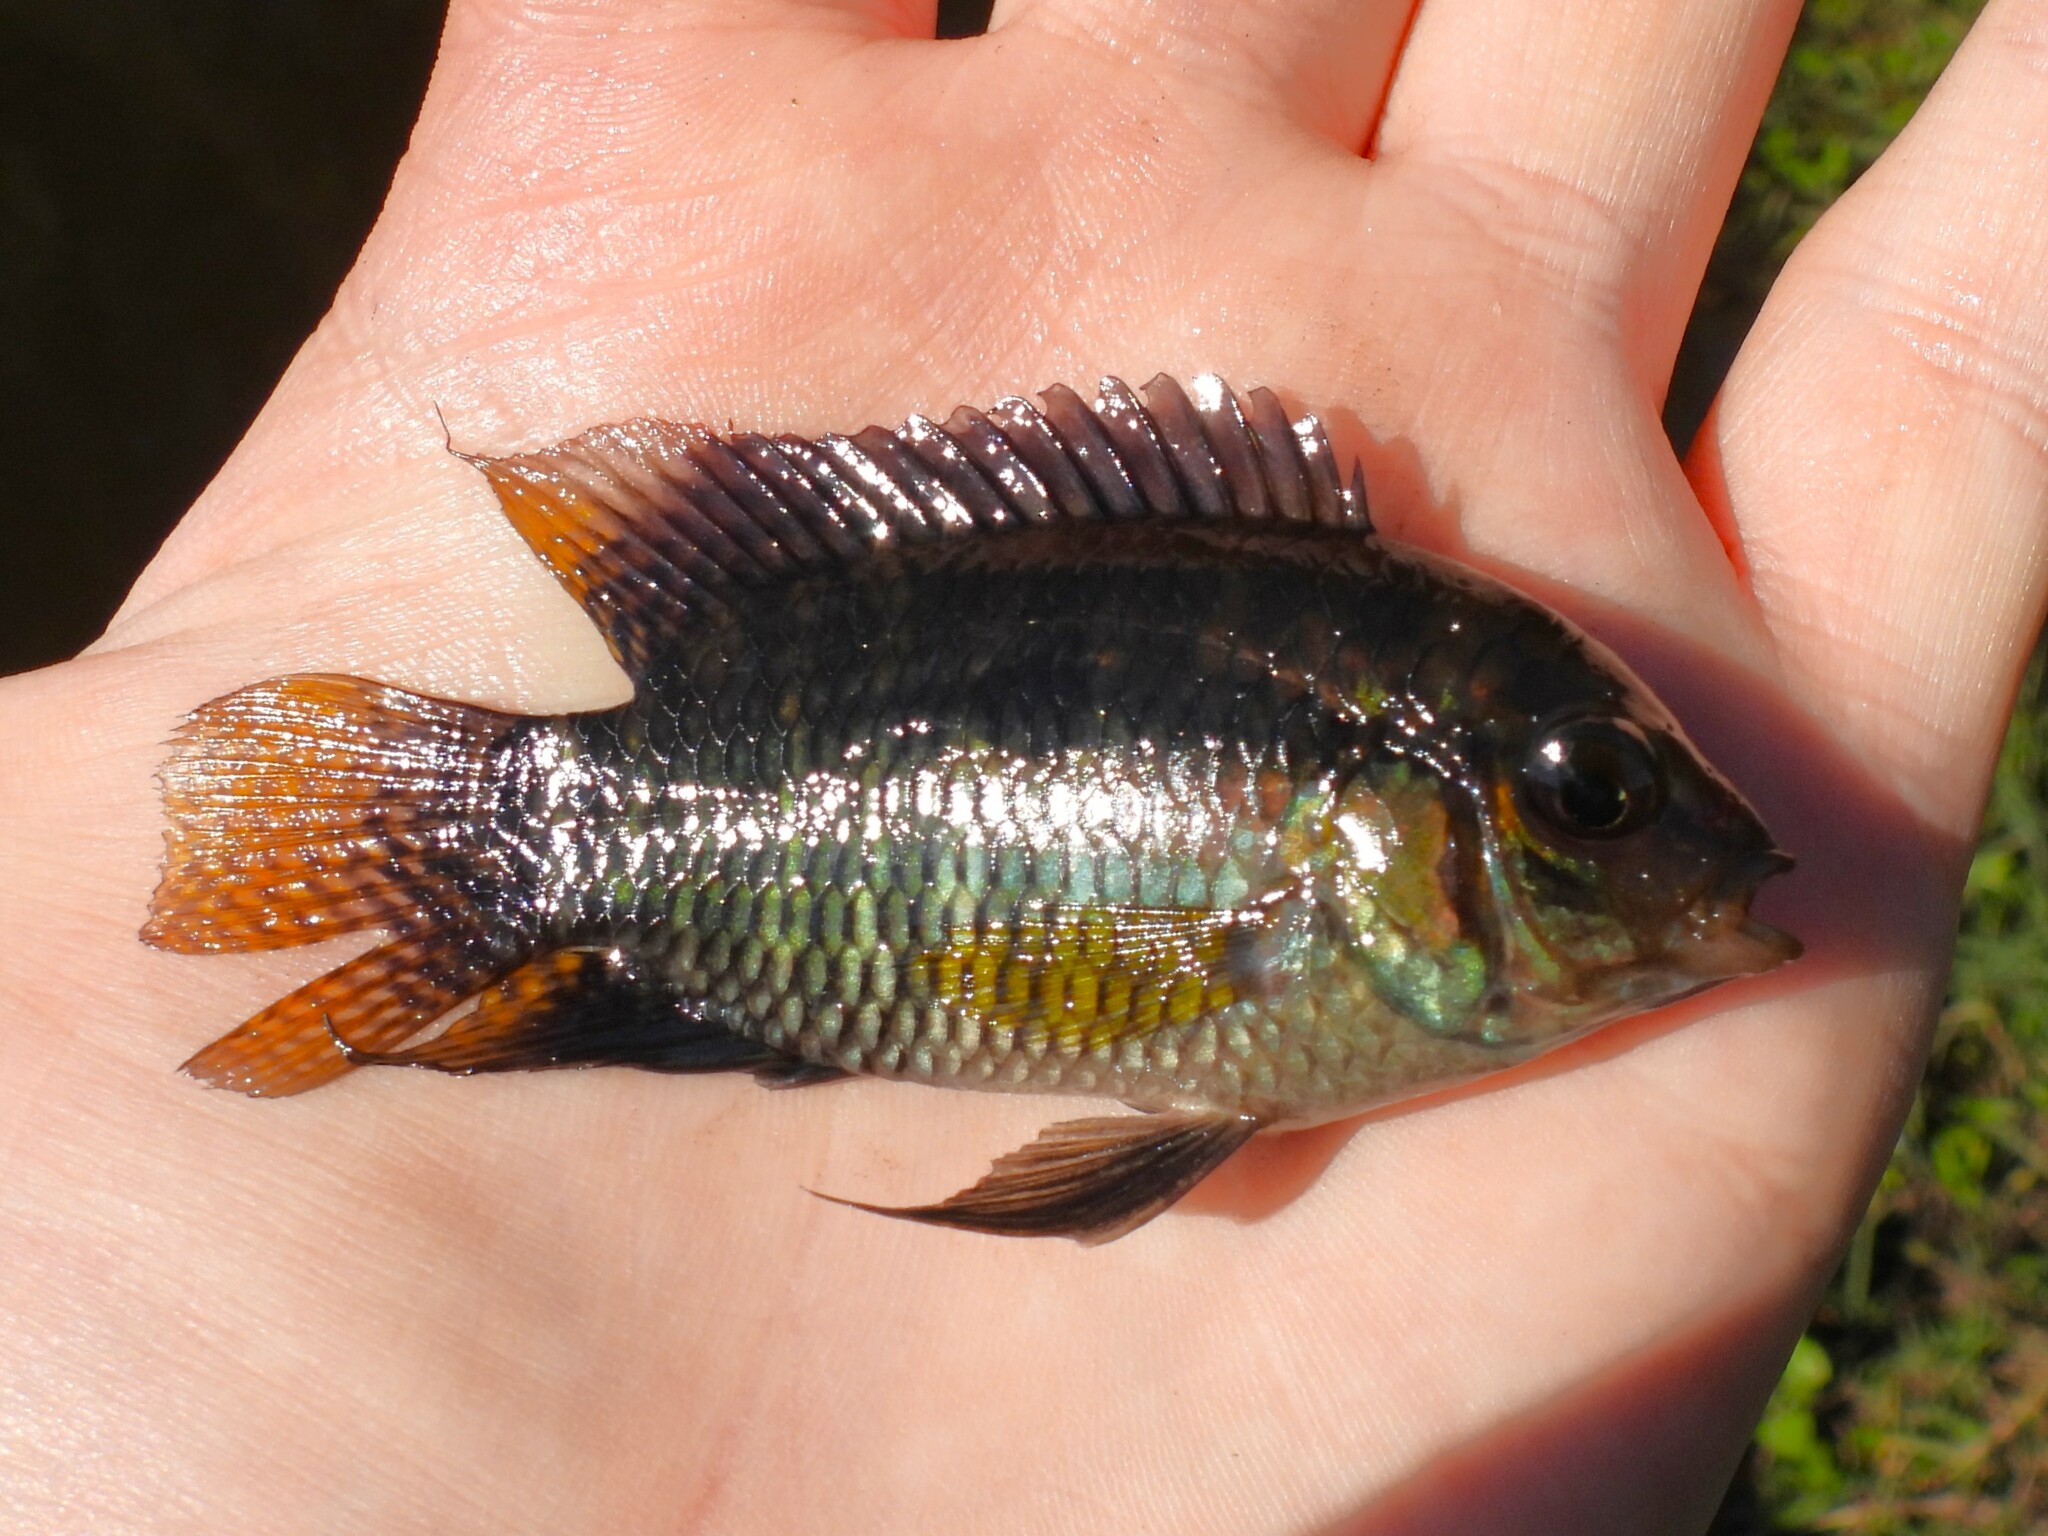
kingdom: Animalia
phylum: Chordata
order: Perciformes
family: Cichlidae
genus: Cichlasoma
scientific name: Cichlasoma dimerus
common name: Chanchita
